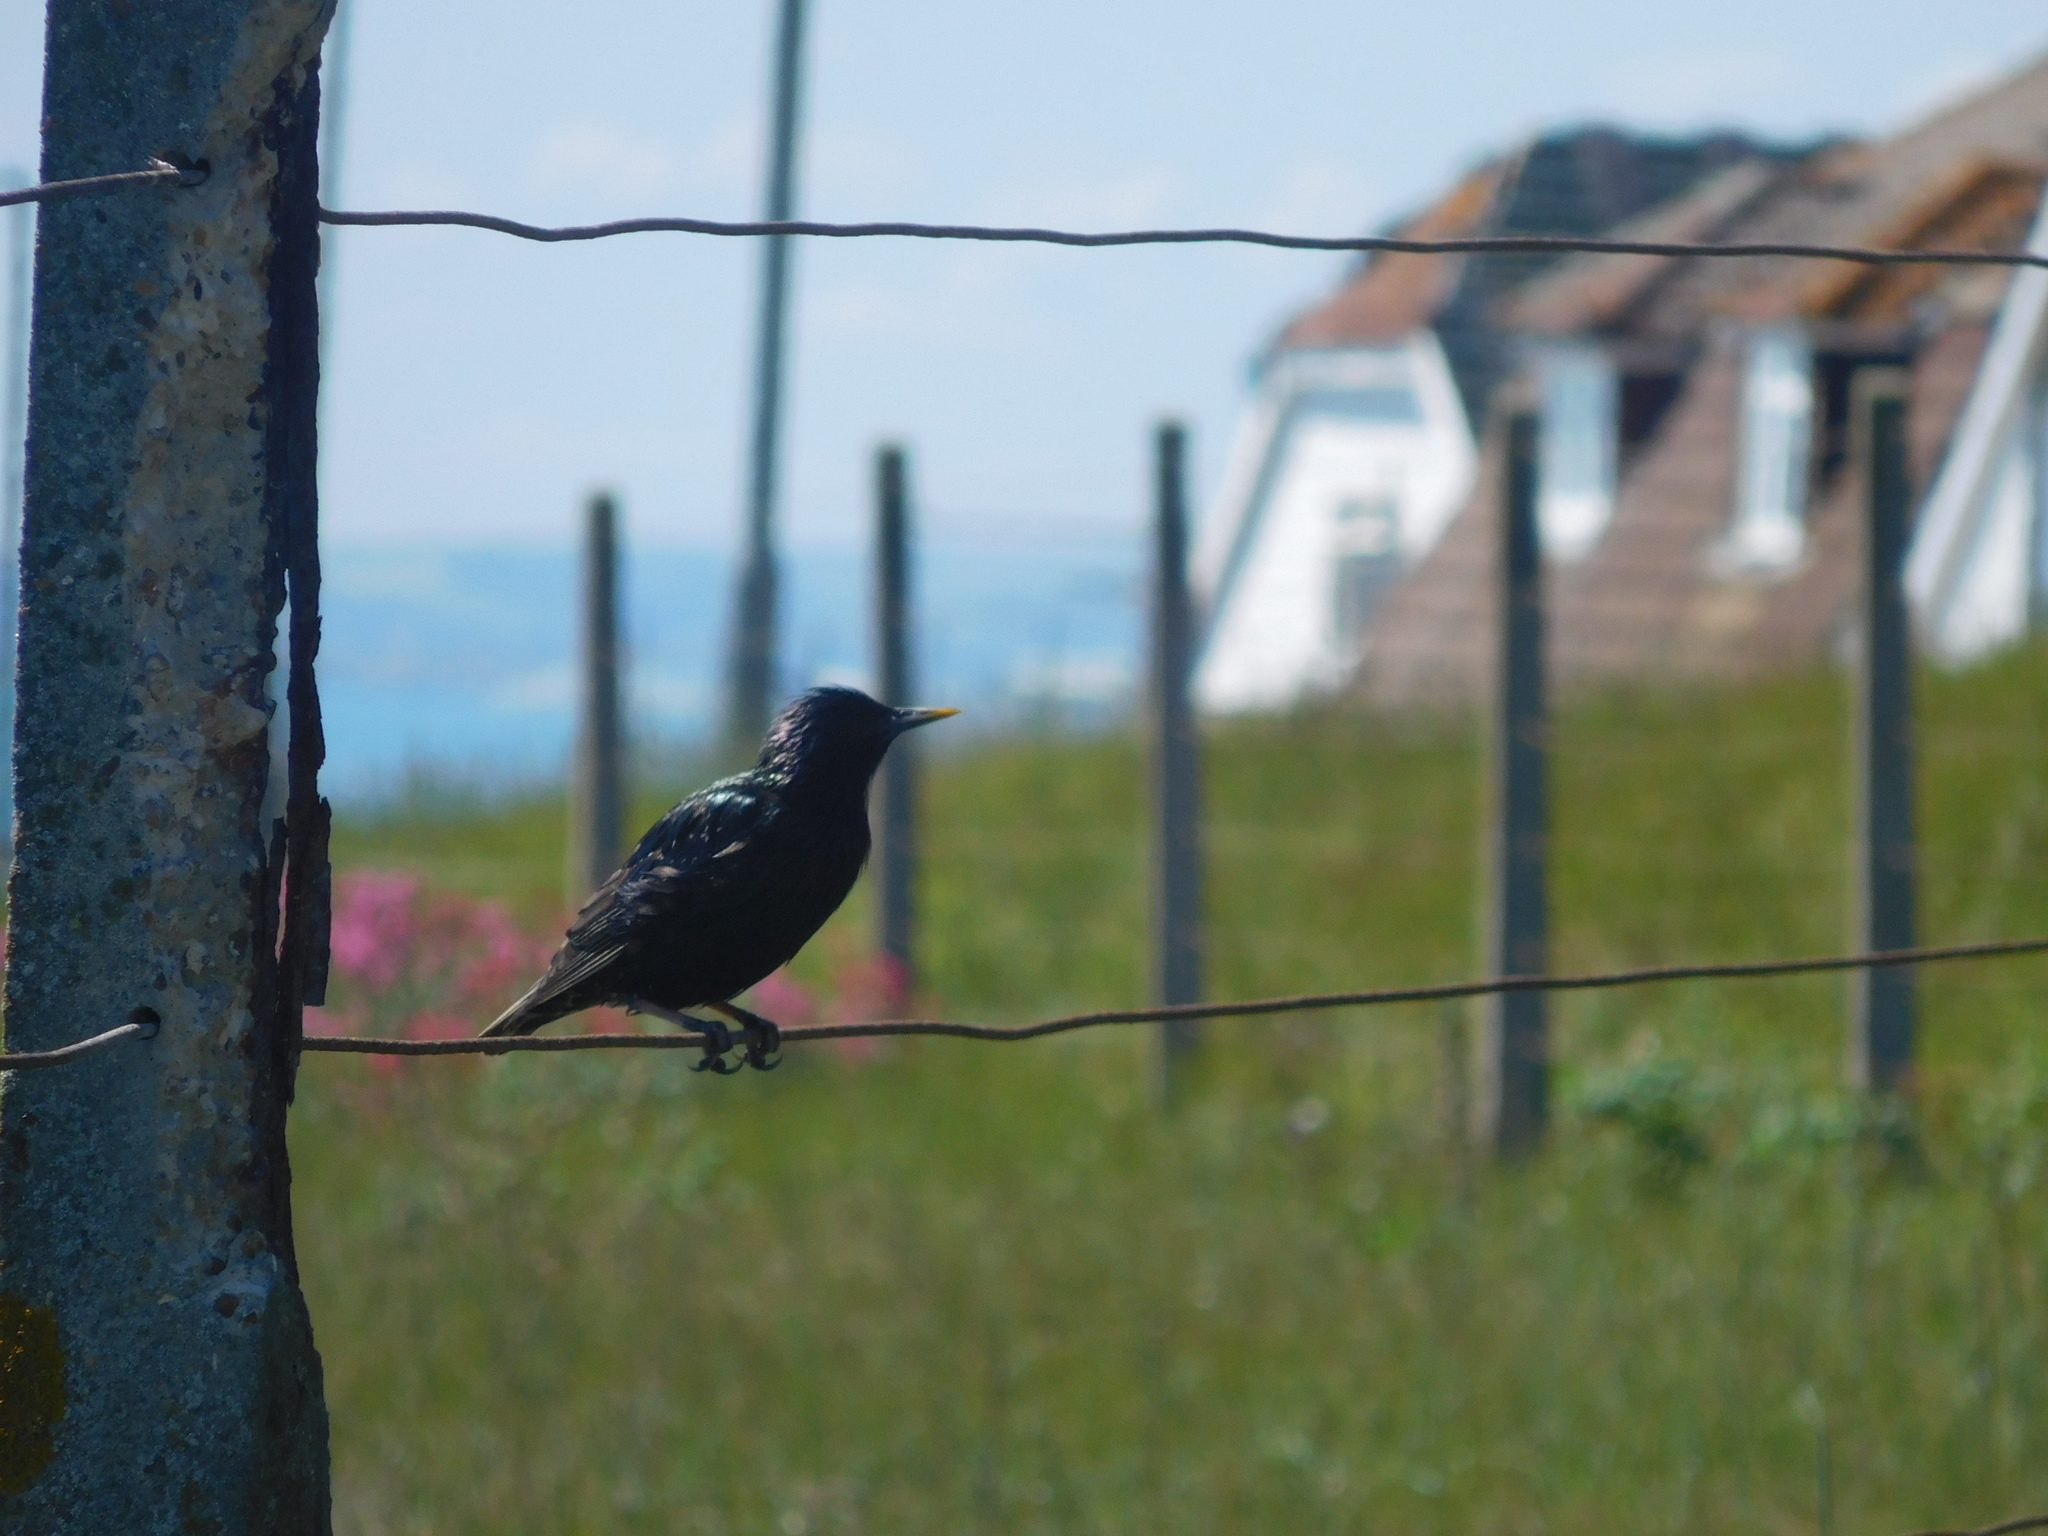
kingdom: Animalia
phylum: Chordata
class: Aves
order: Passeriformes
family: Sturnidae
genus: Sturnus
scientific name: Sturnus vulgaris
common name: Common starling
